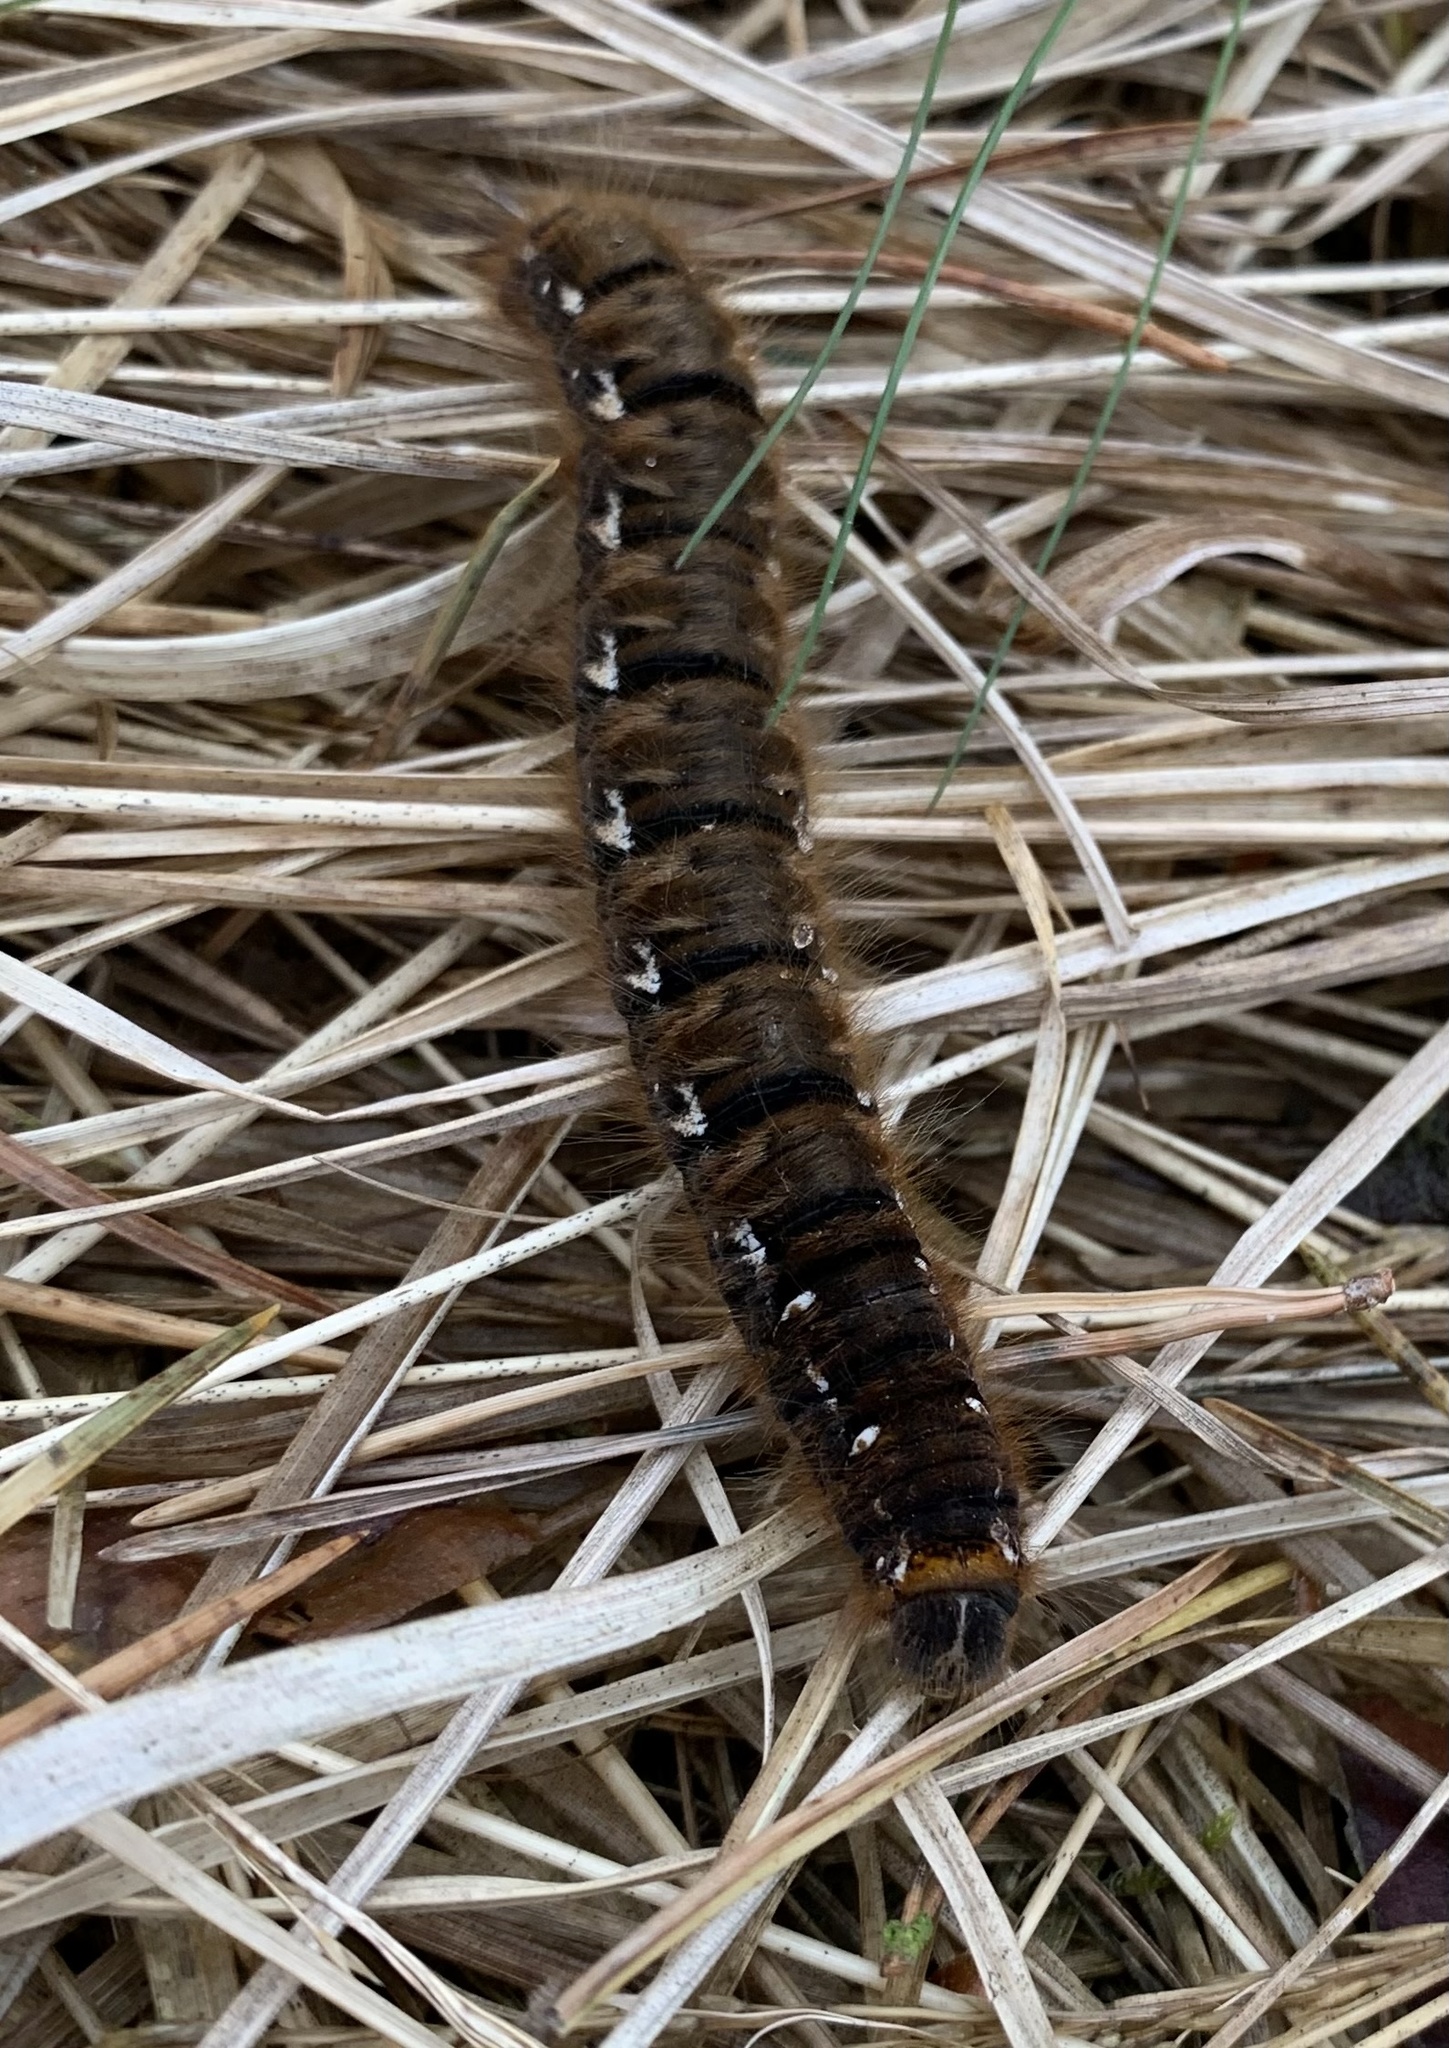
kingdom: Animalia
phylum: Arthropoda
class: Insecta
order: Lepidoptera
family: Lasiocampidae
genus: Lasiocampa
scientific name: Lasiocampa quercus
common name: Oak eggar
